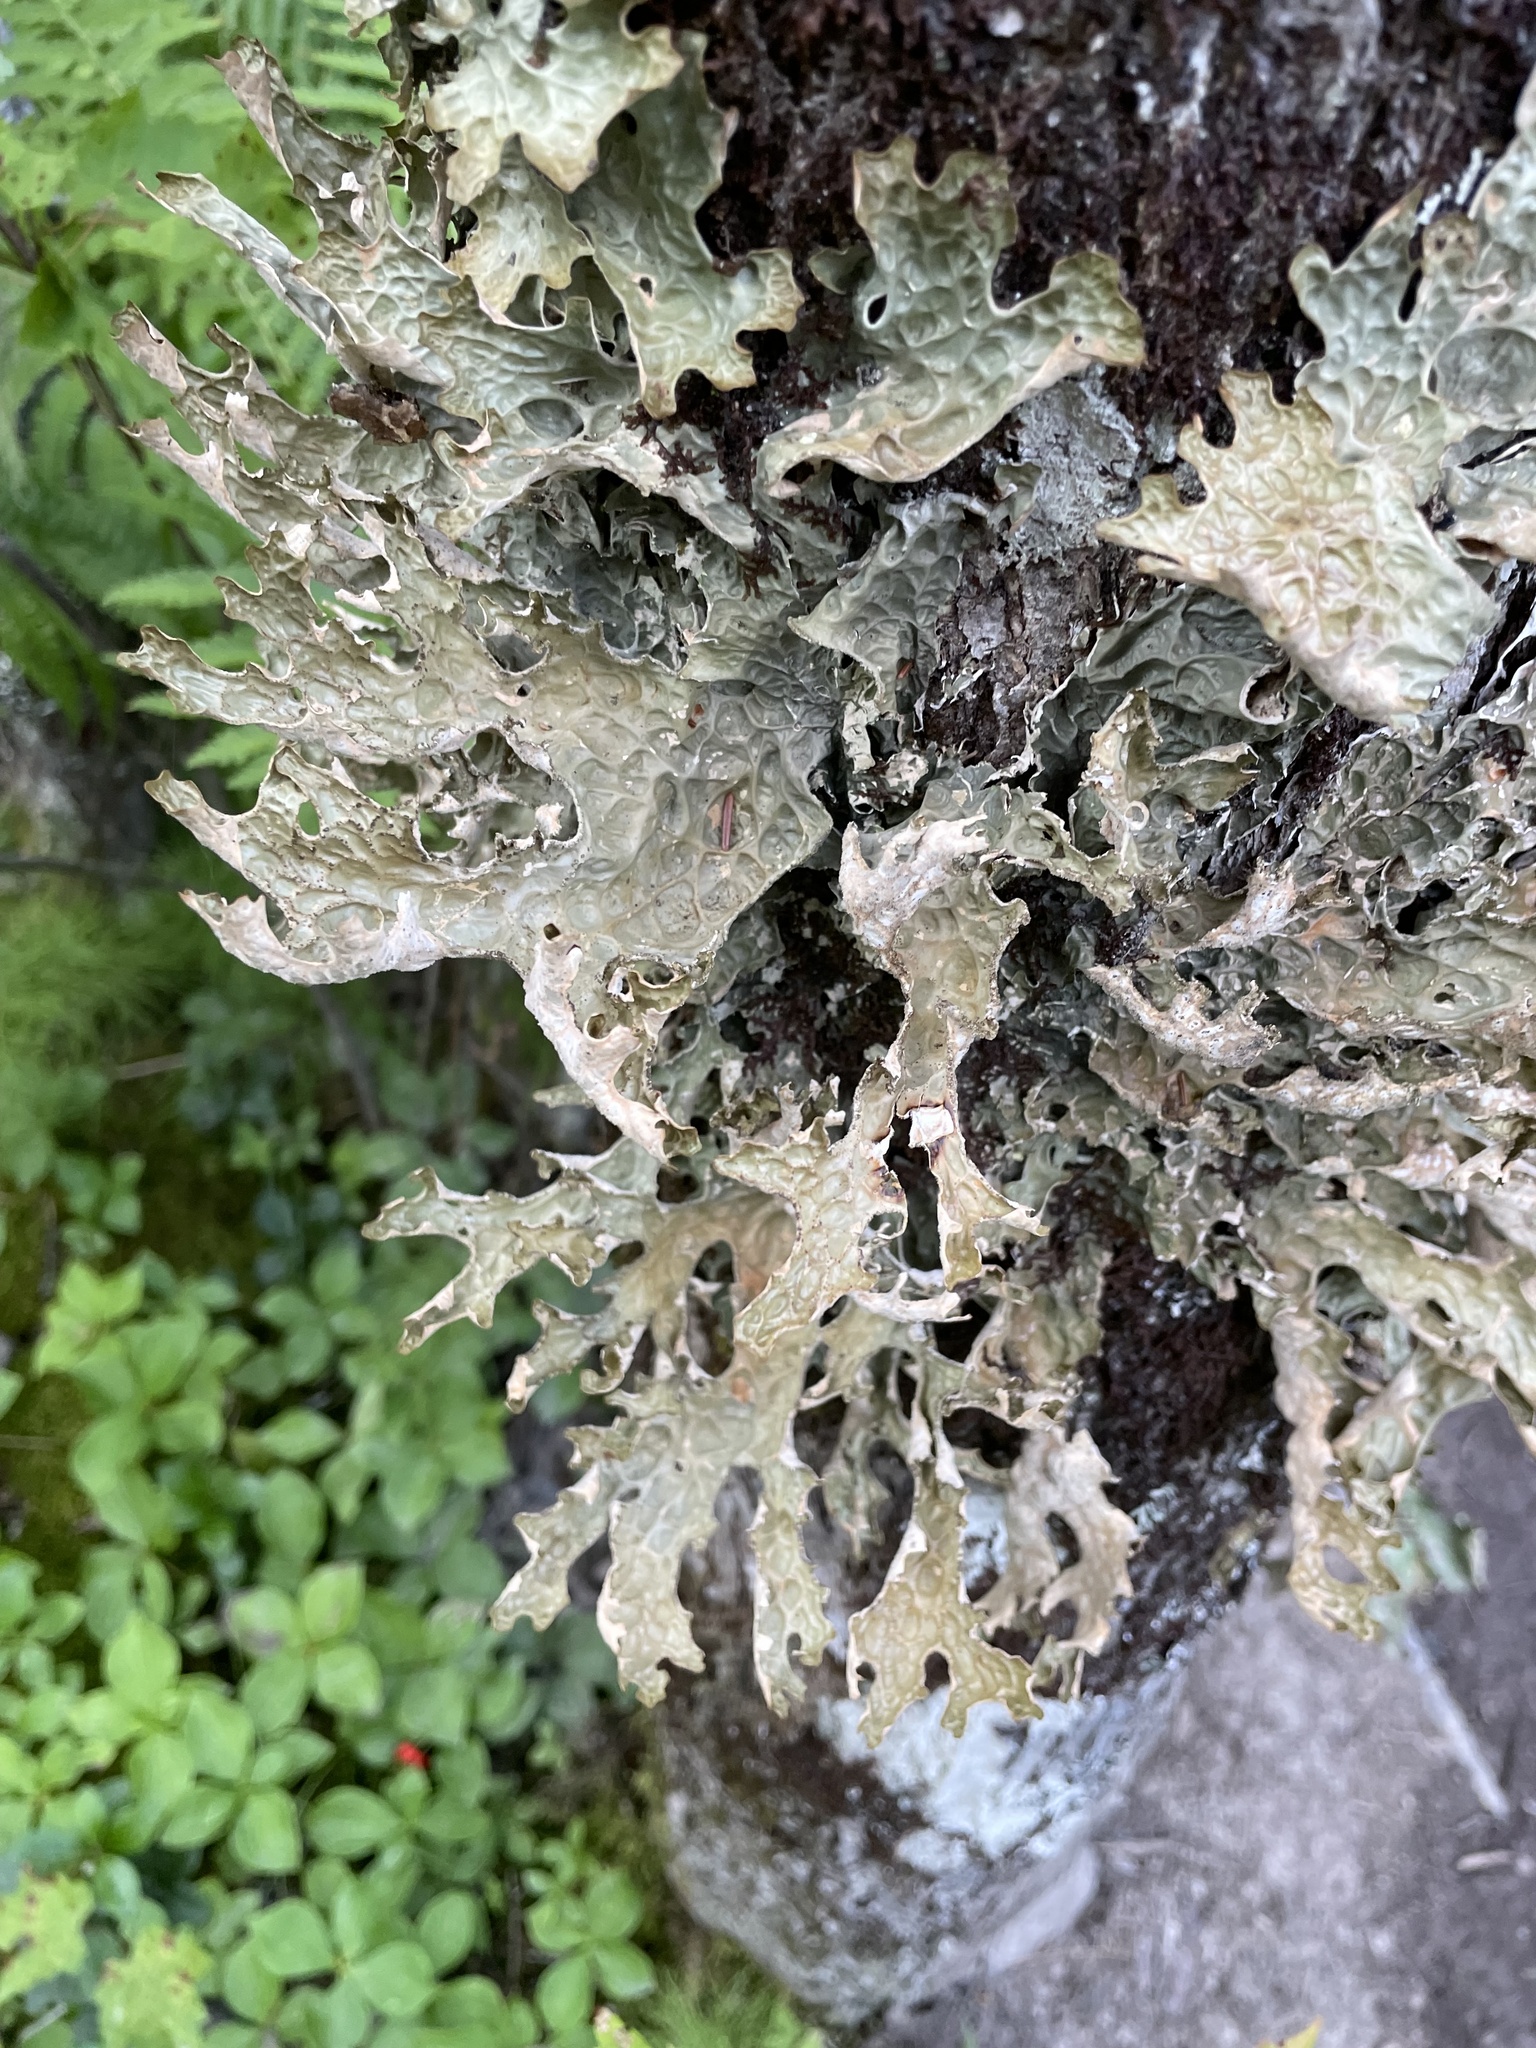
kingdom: Fungi
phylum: Ascomycota
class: Lecanoromycetes
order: Peltigerales
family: Lobariaceae
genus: Lobaria
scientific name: Lobaria pulmonaria
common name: Lungwort
